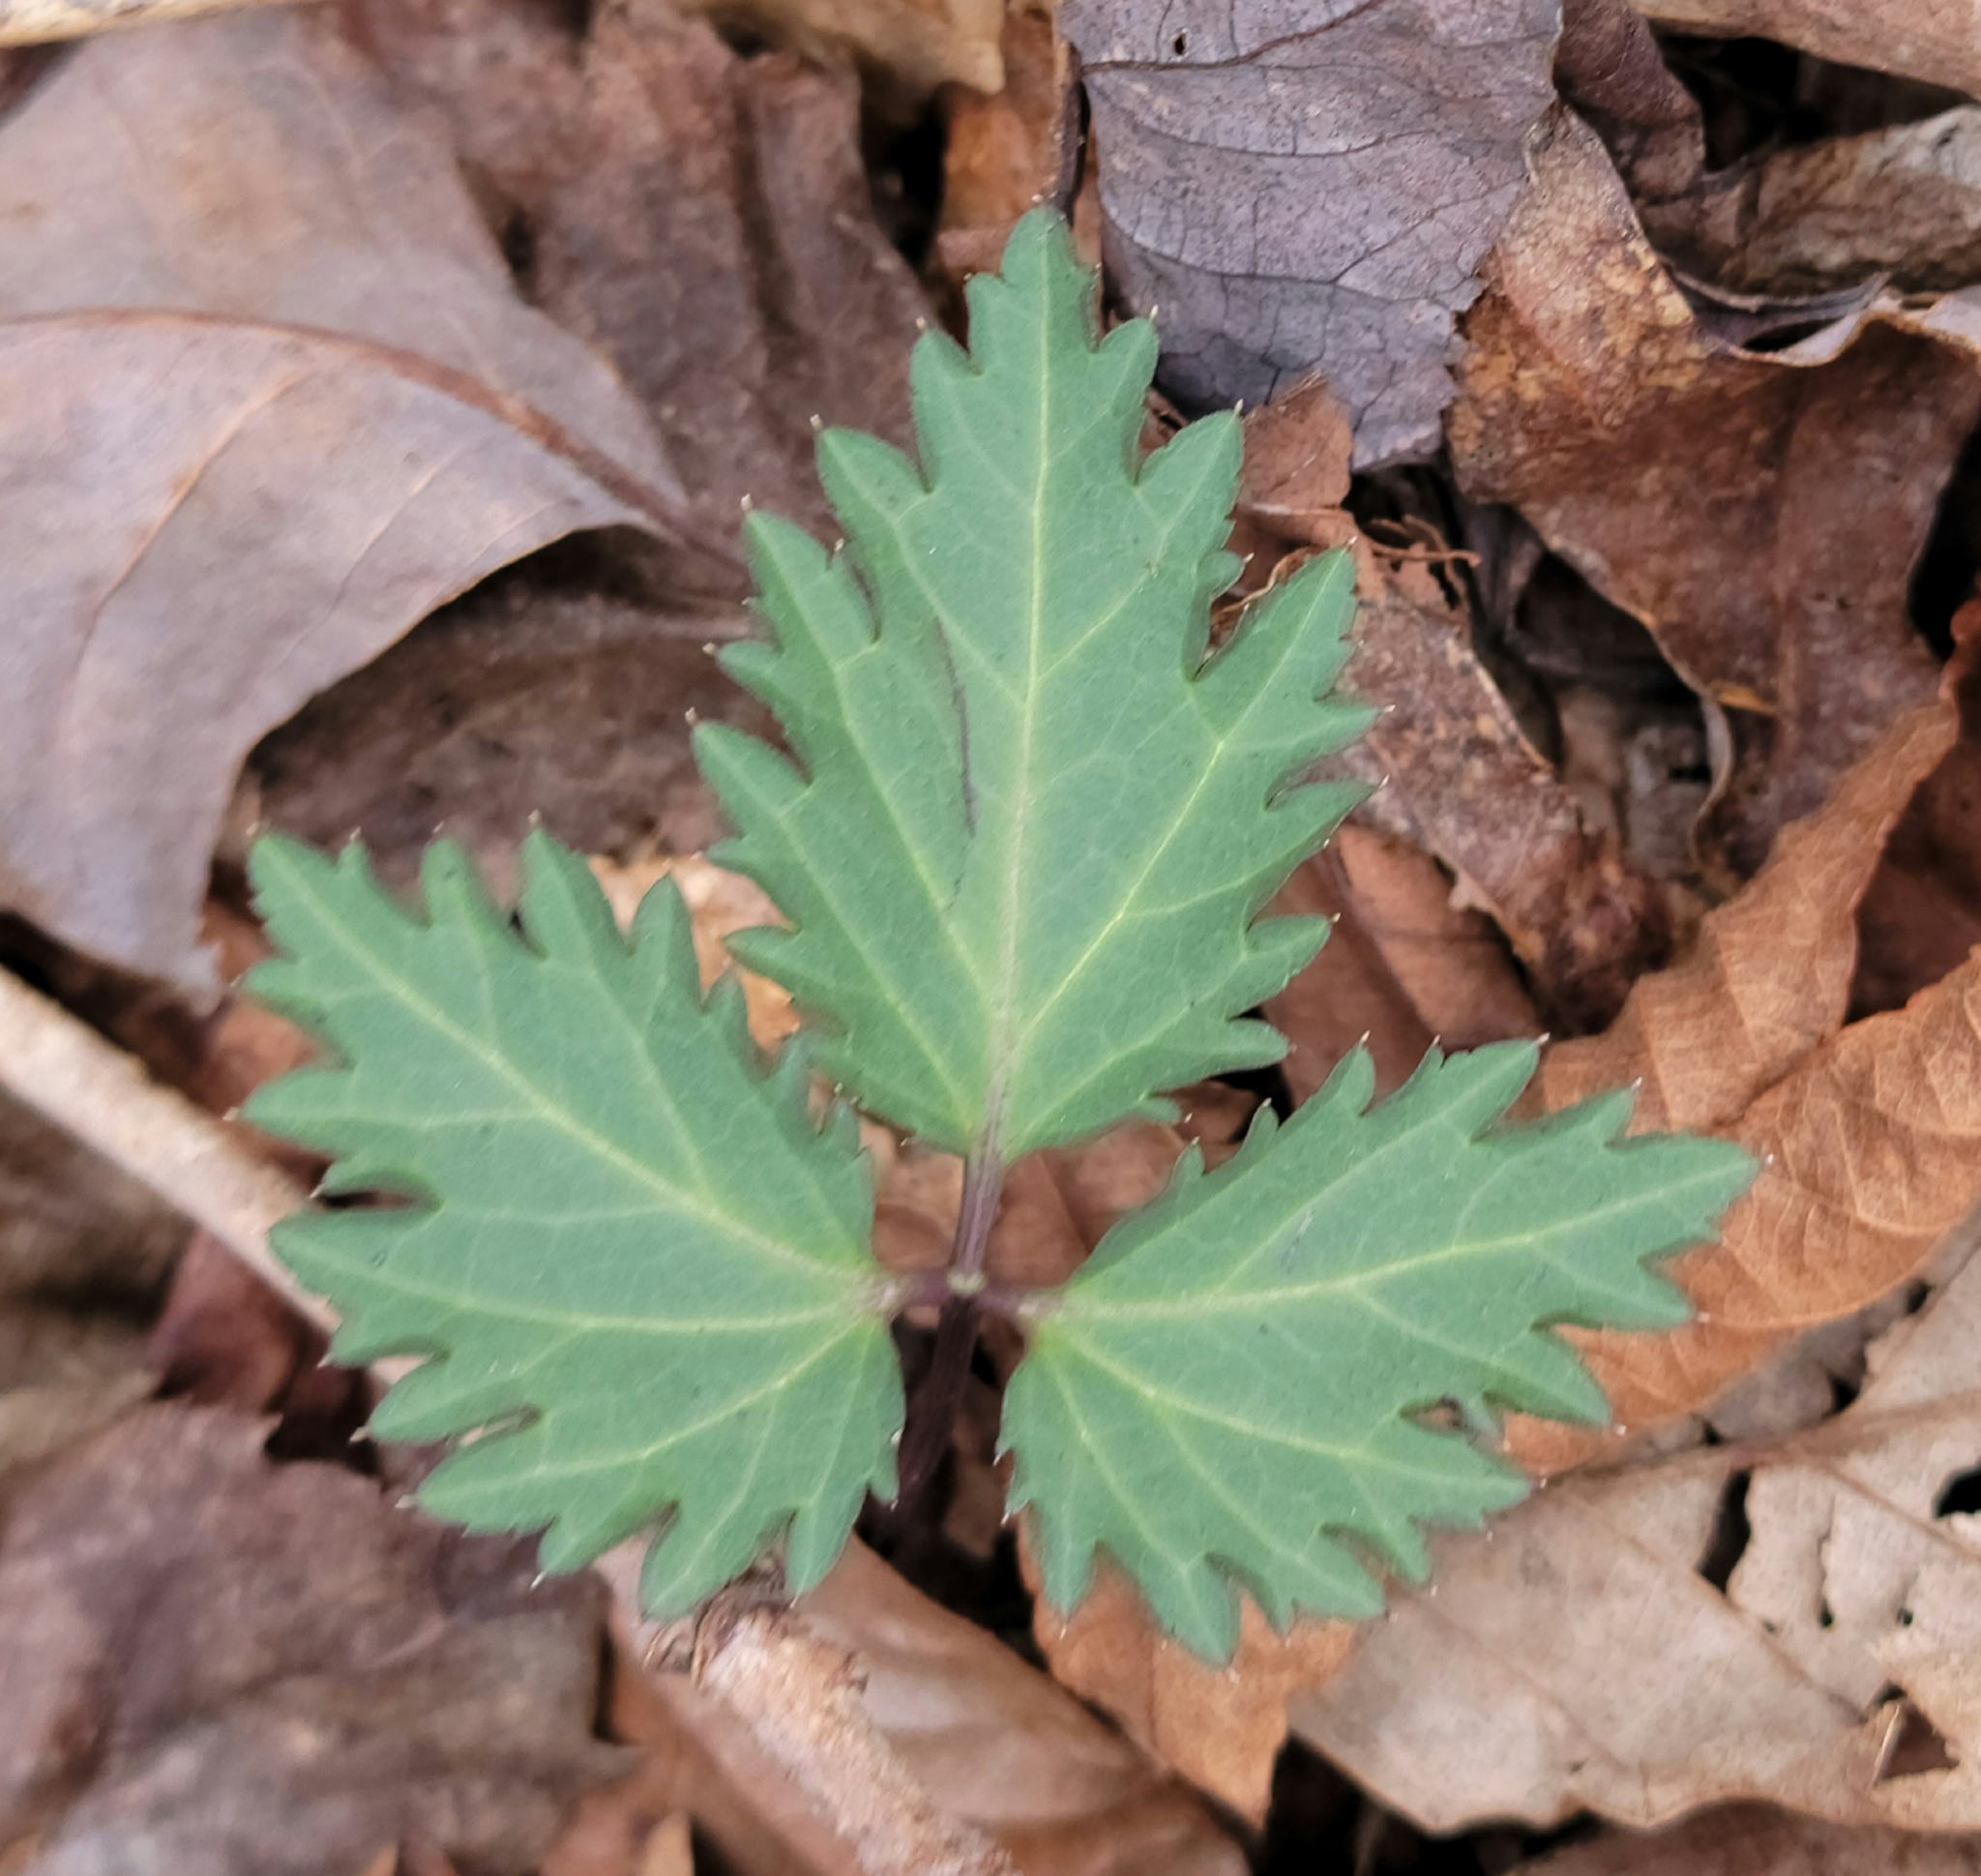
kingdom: Plantae
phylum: Tracheophyta
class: Magnoliopsida
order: Brassicales
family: Brassicaceae
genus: Cardamine
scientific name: Cardamine diphylla
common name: Broad-leaved toothwort
